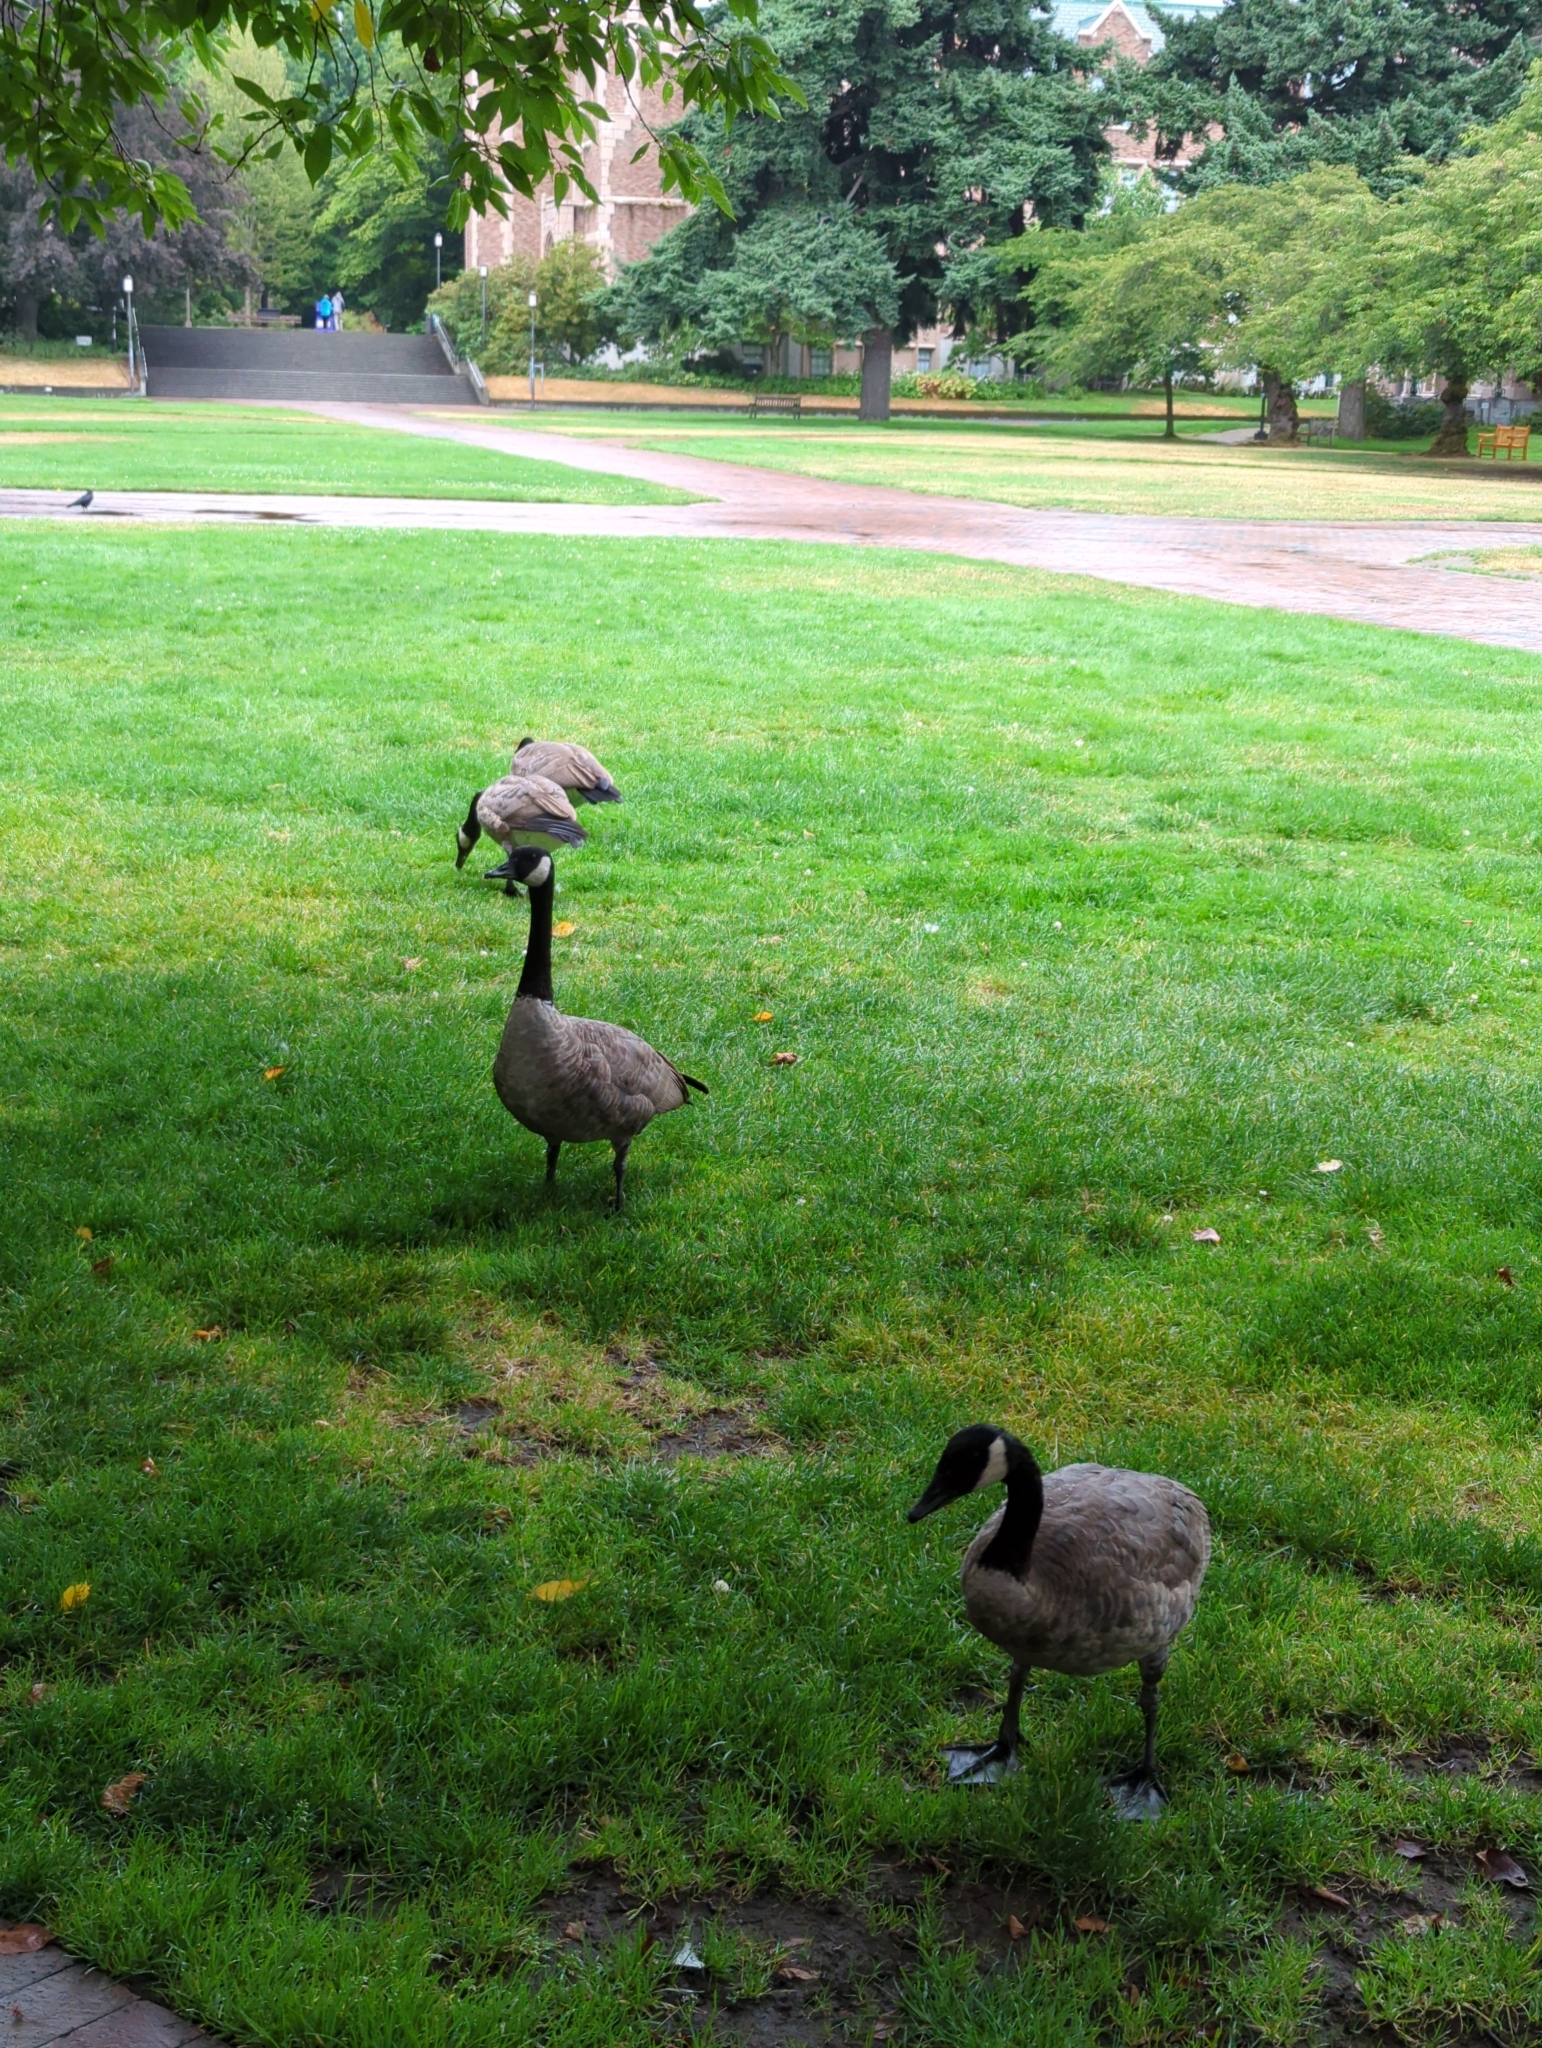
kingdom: Animalia
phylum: Chordata
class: Aves
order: Anseriformes
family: Anatidae
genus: Branta
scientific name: Branta canadensis
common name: Canada goose
